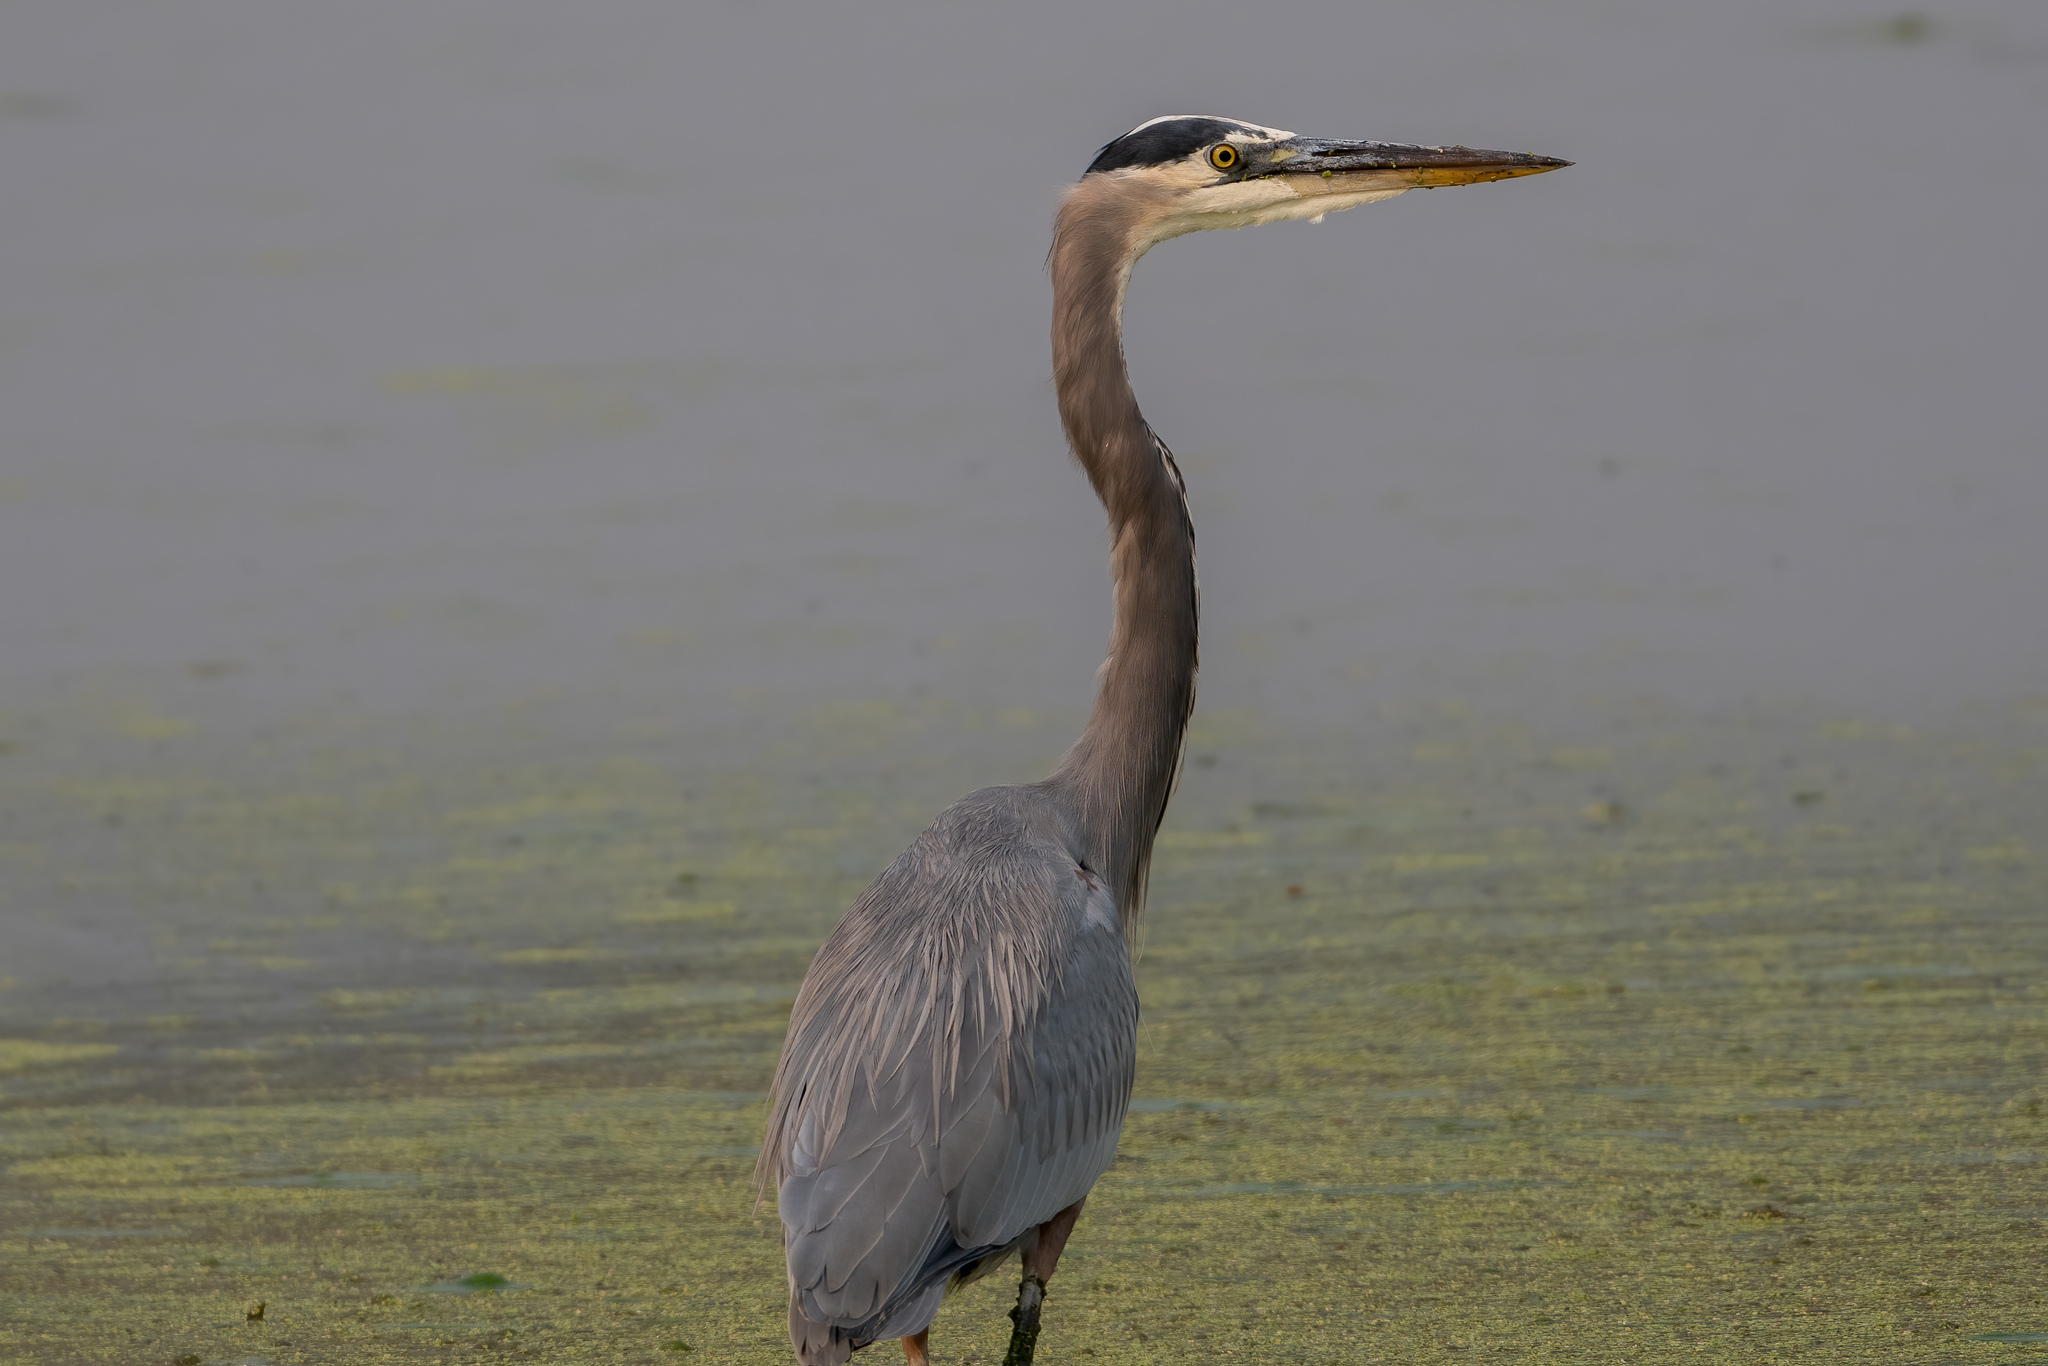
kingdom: Animalia
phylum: Chordata
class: Aves
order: Pelecaniformes
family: Ardeidae
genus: Ardea
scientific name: Ardea herodias
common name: Great blue heron
